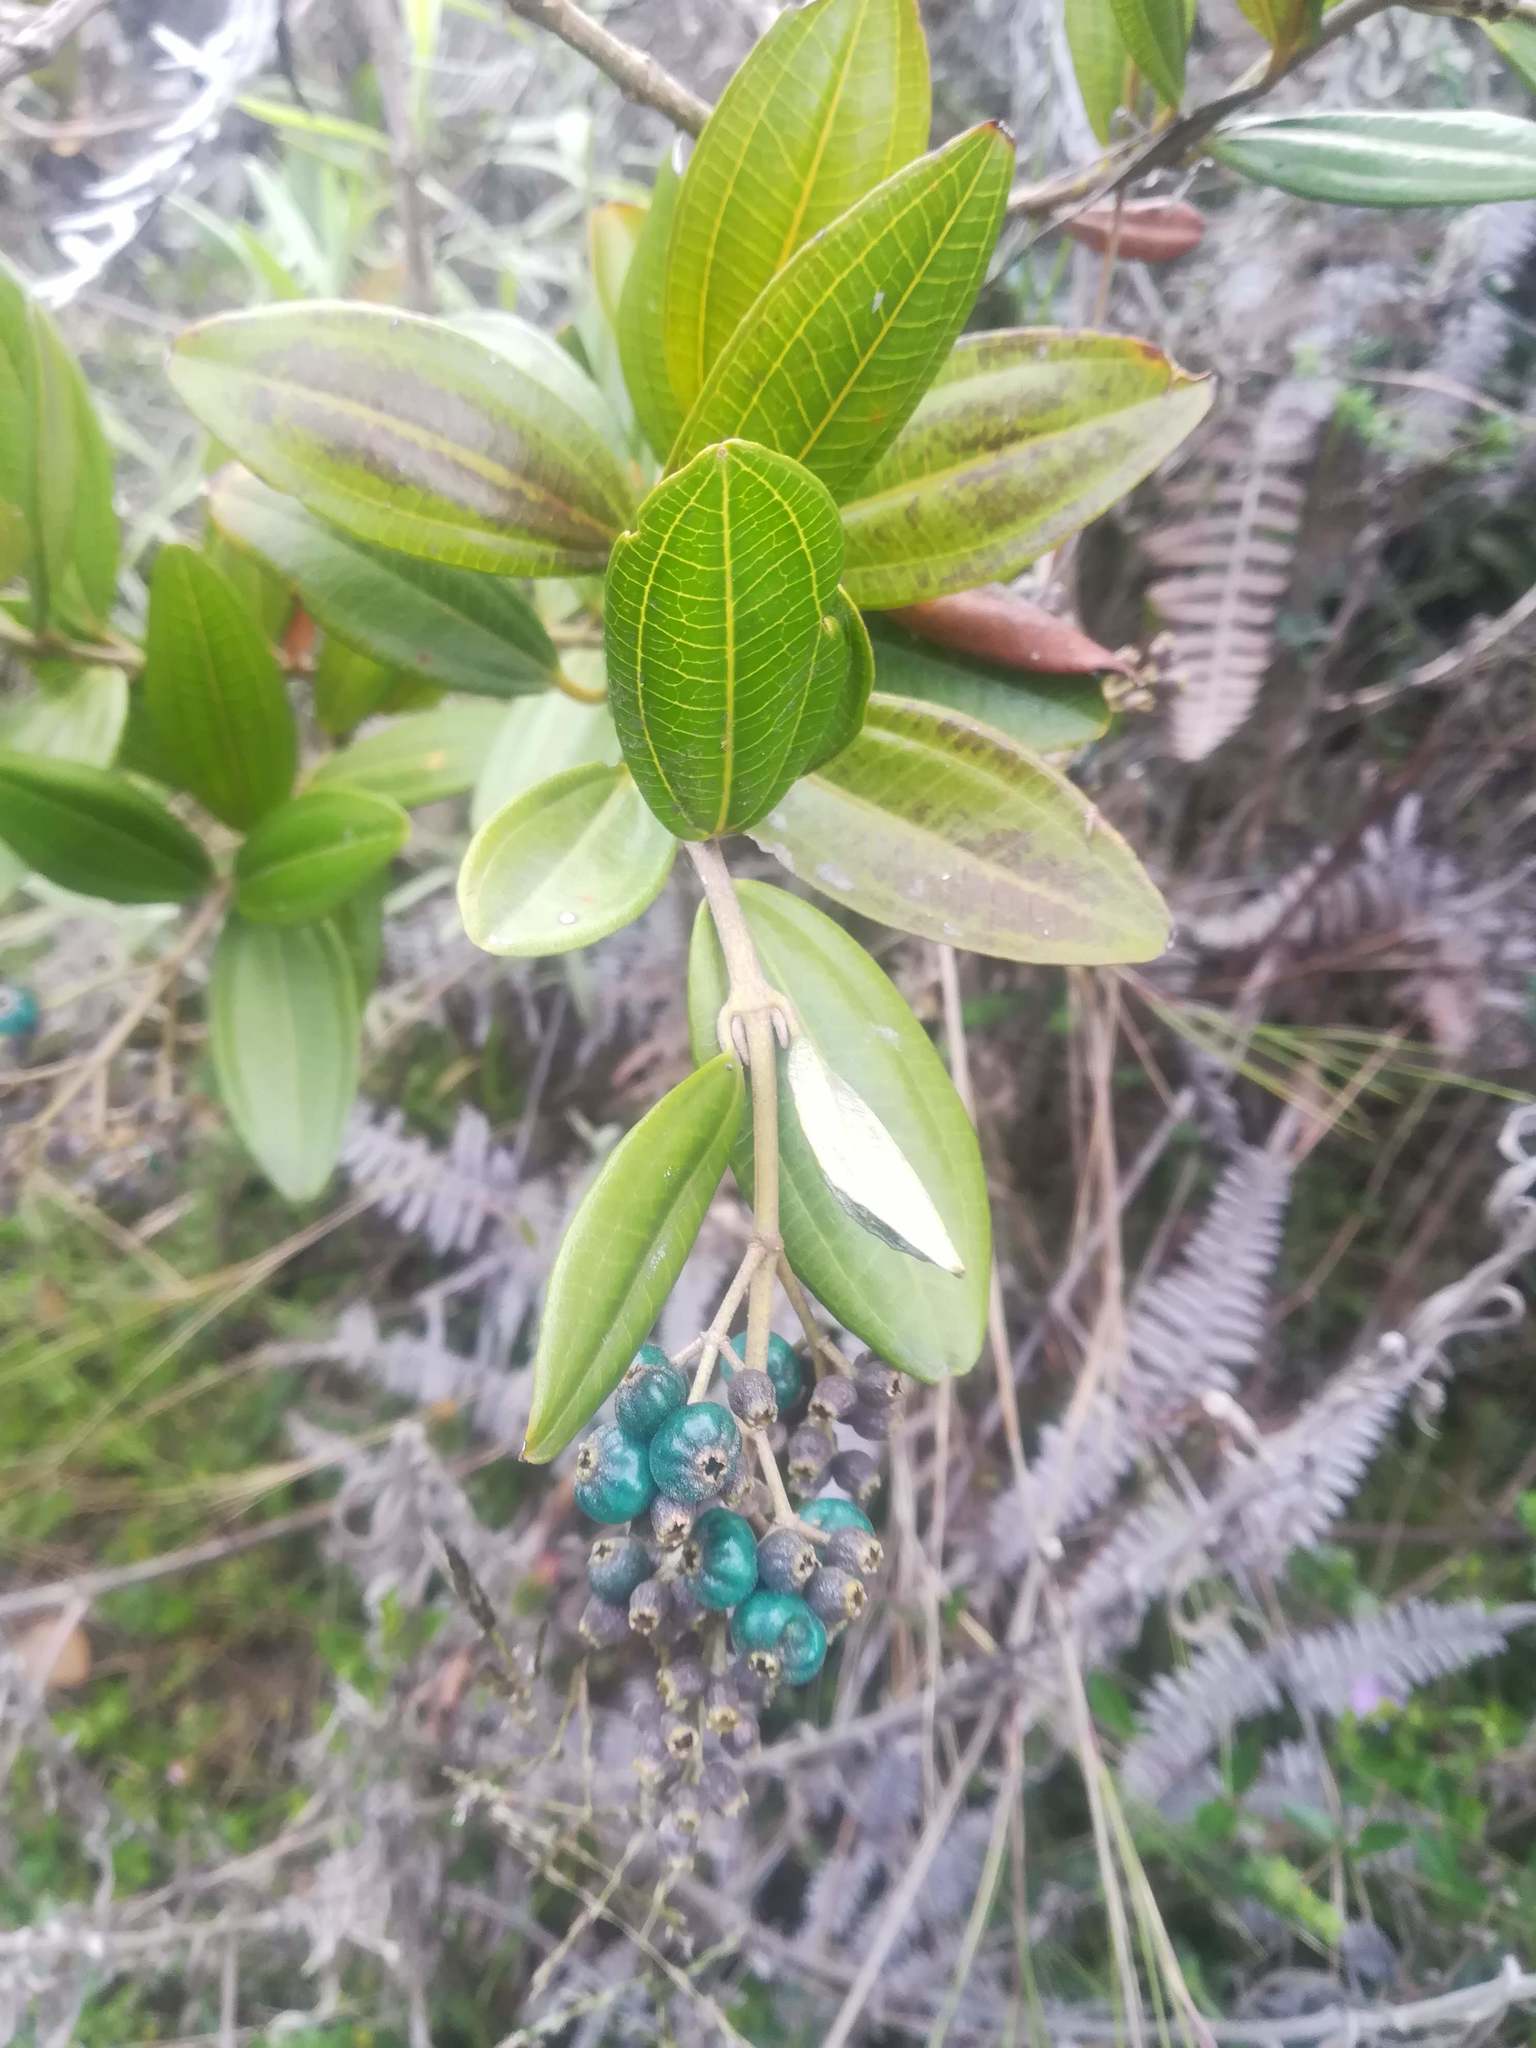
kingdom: Plantae
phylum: Tracheophyta
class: Magnoliopsida
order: Myrtales
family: Melastomataceae
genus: Miconia
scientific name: Miconia squamulosa
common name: Squamulose maya
